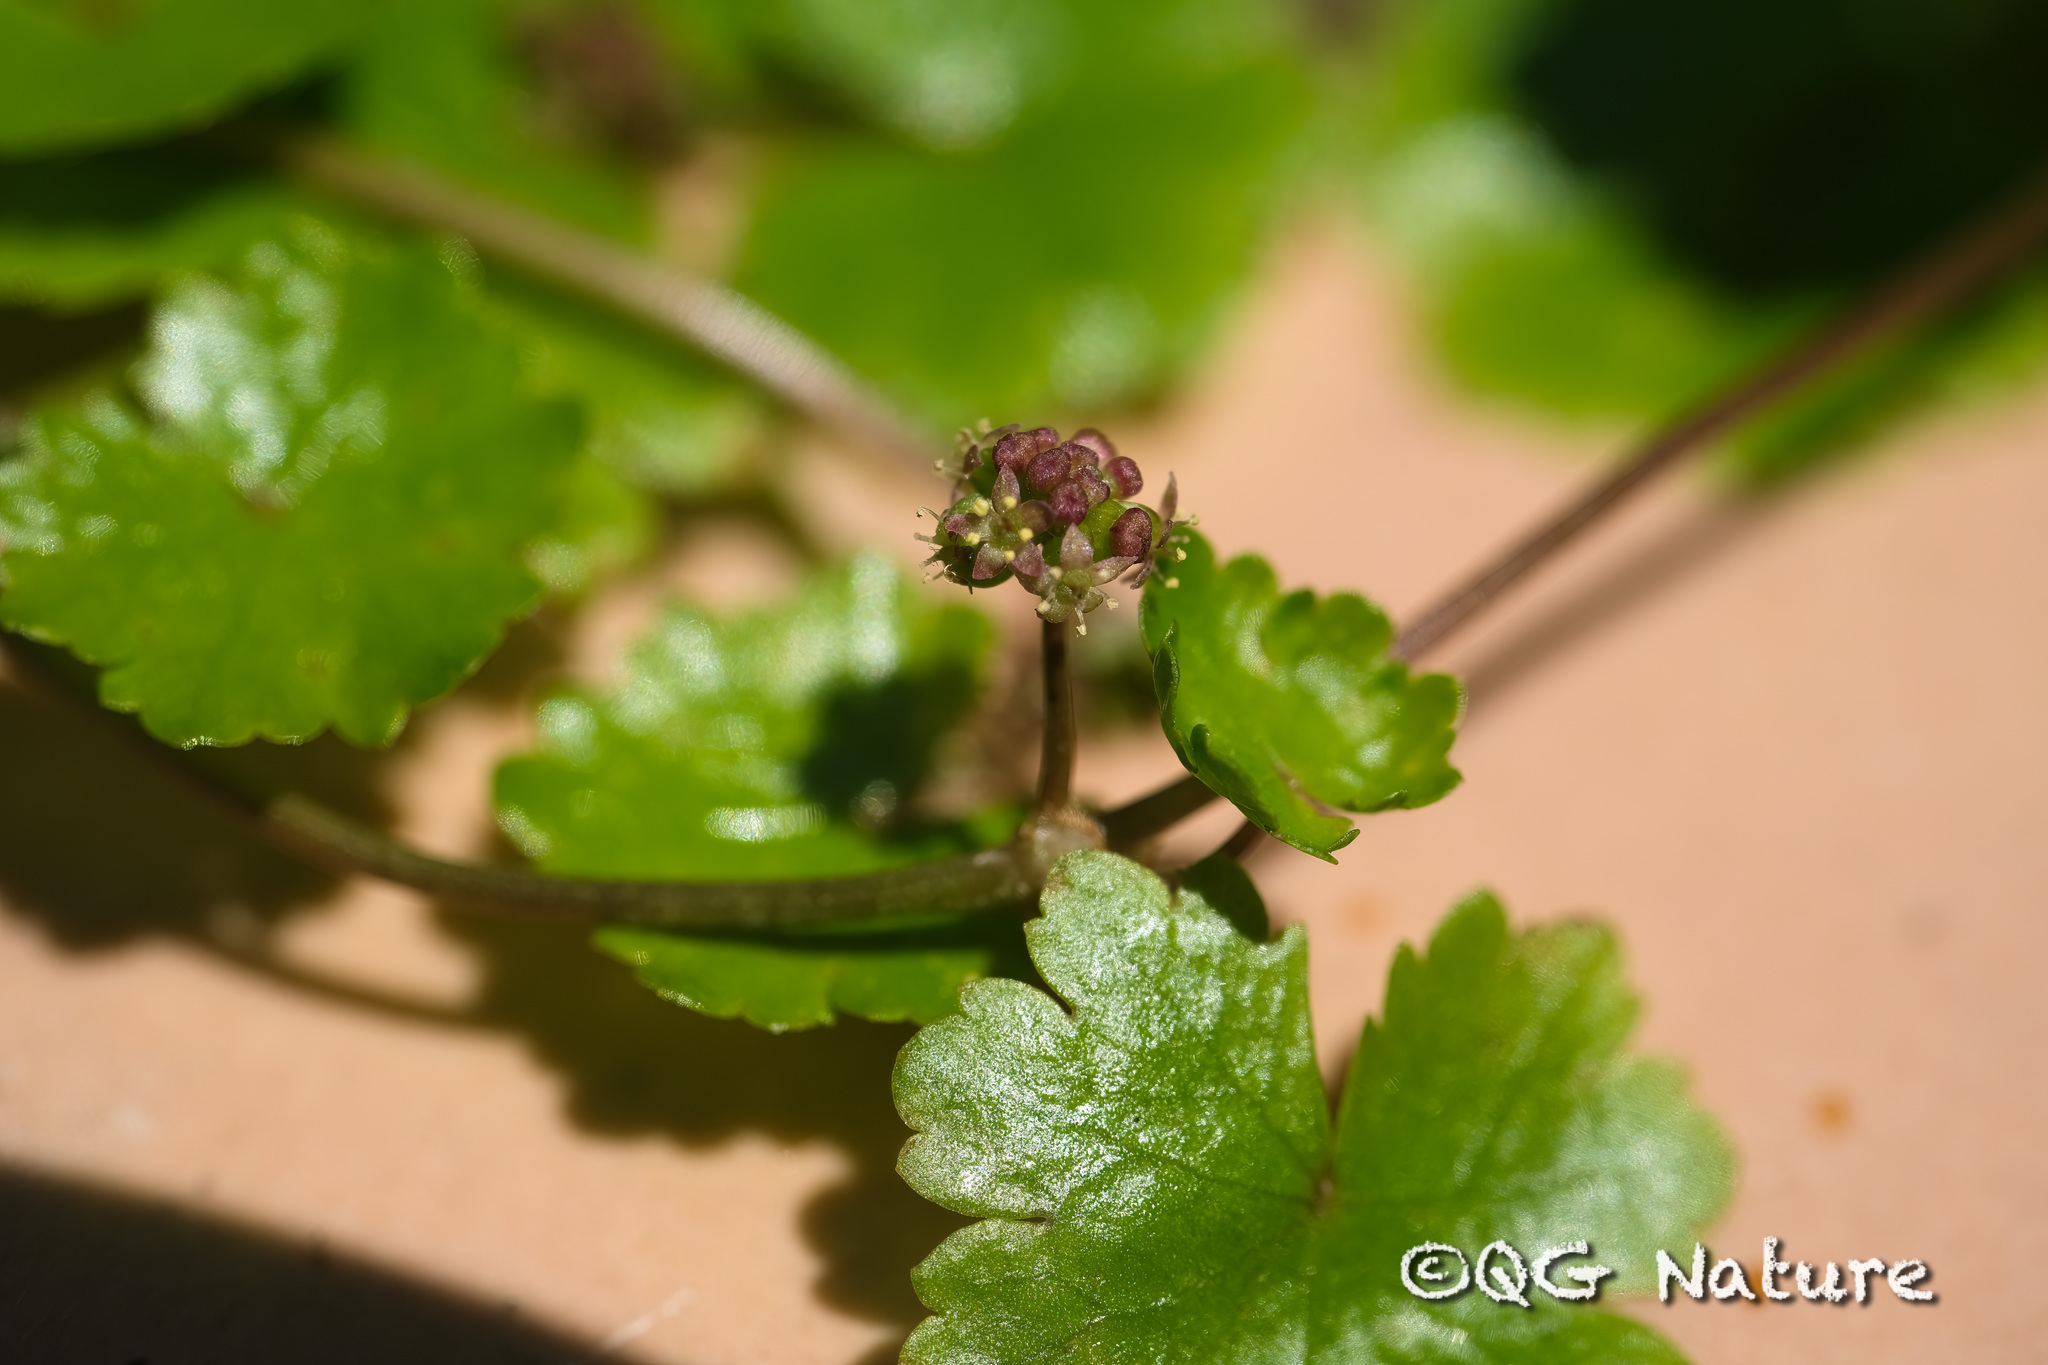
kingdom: Plantae
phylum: Tracheophyta
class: Magnoliopsida
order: Apiales
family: Araliaceae
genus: Hydrocotyle
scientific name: Hydrocotyle sibthorpioides
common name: Lawn marshpennywort
